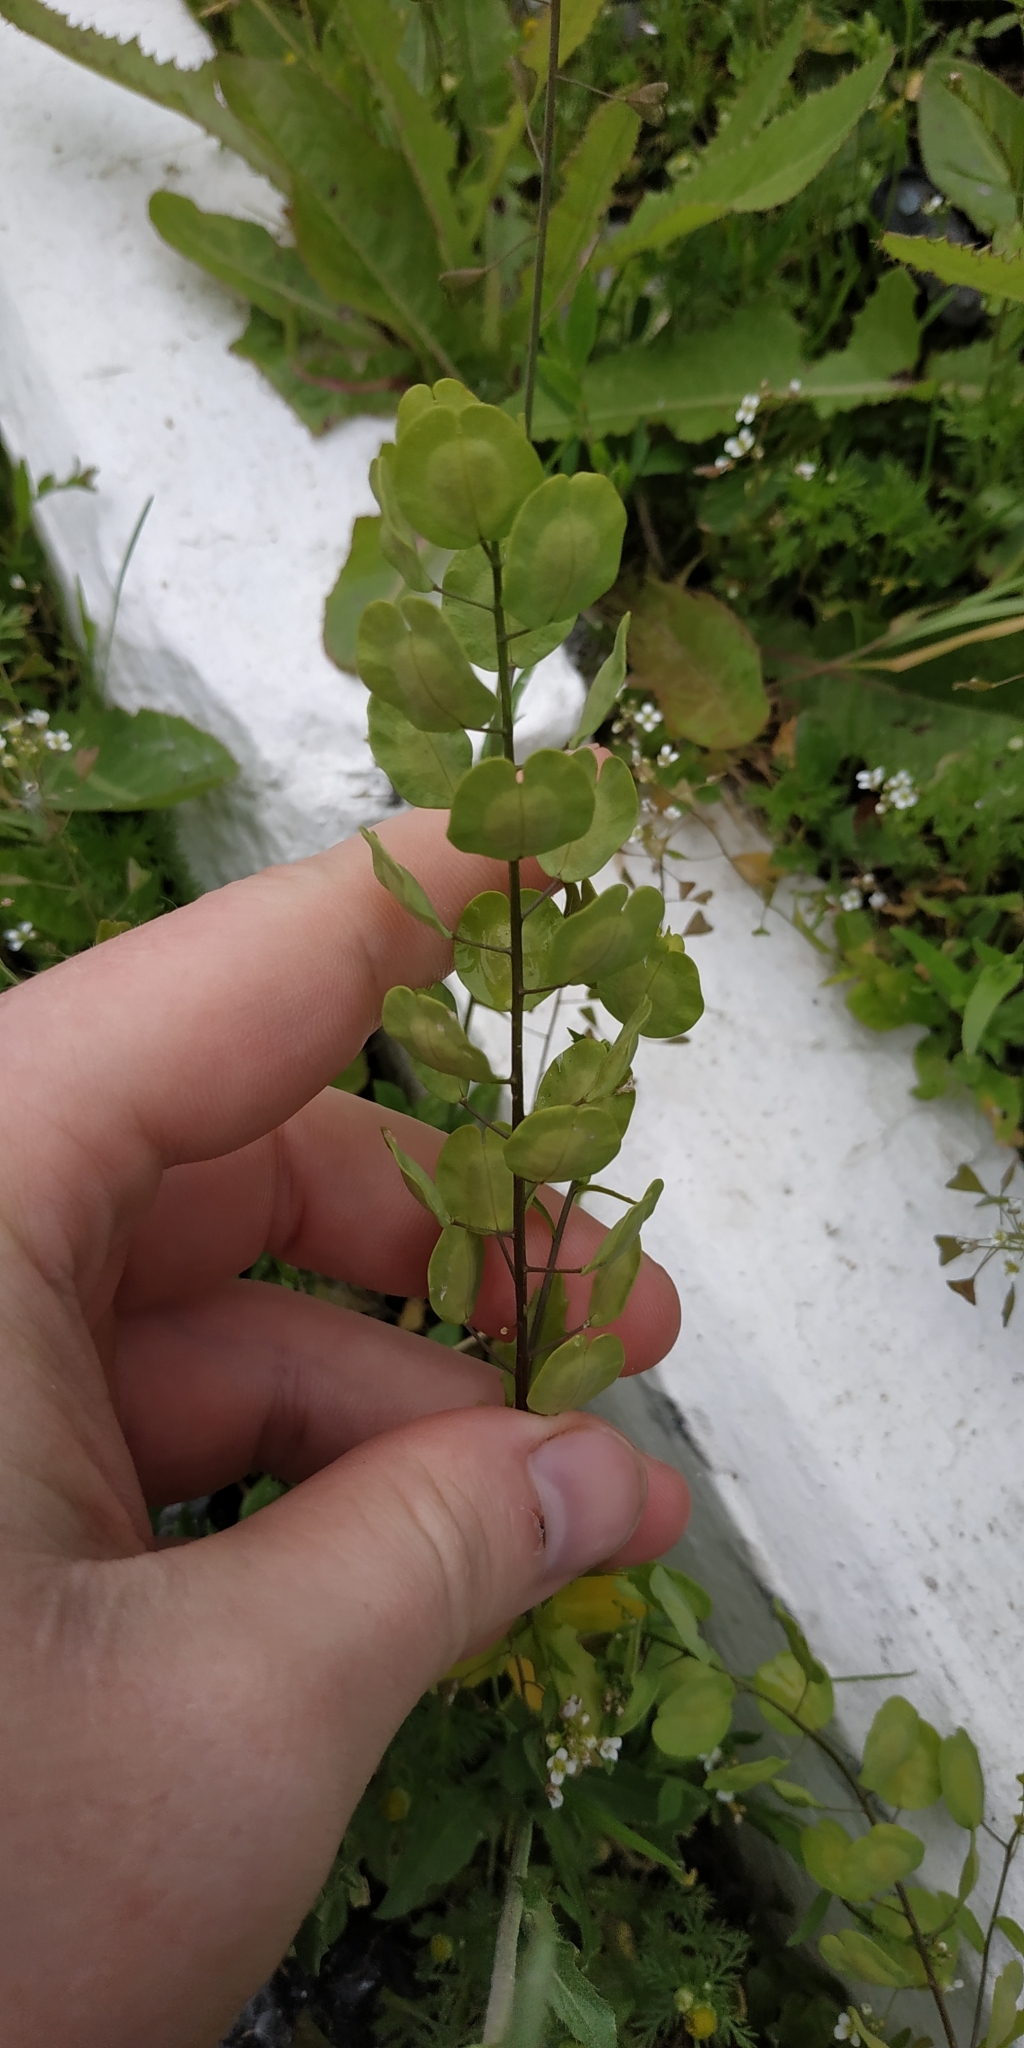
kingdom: Plantae
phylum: Tracheophyta
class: Magnoliopsida
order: Brassicales
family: Brassicaceae
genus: Thlaspi
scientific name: Thlaspi arvense
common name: Field pennycress
